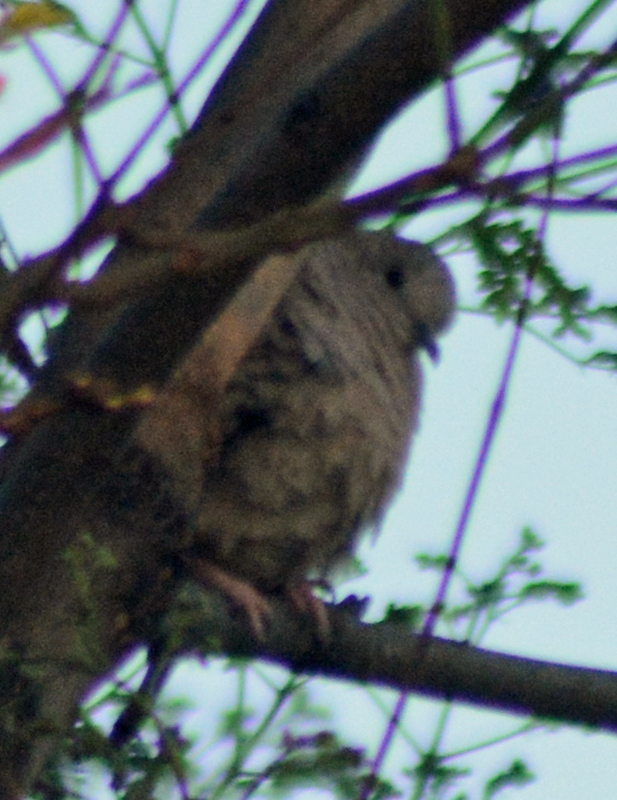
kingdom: Animalia
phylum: Chordata
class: Aves
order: Columbiformes
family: Columbidae
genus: Columbina
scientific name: Columbina inca
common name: Inca dove
